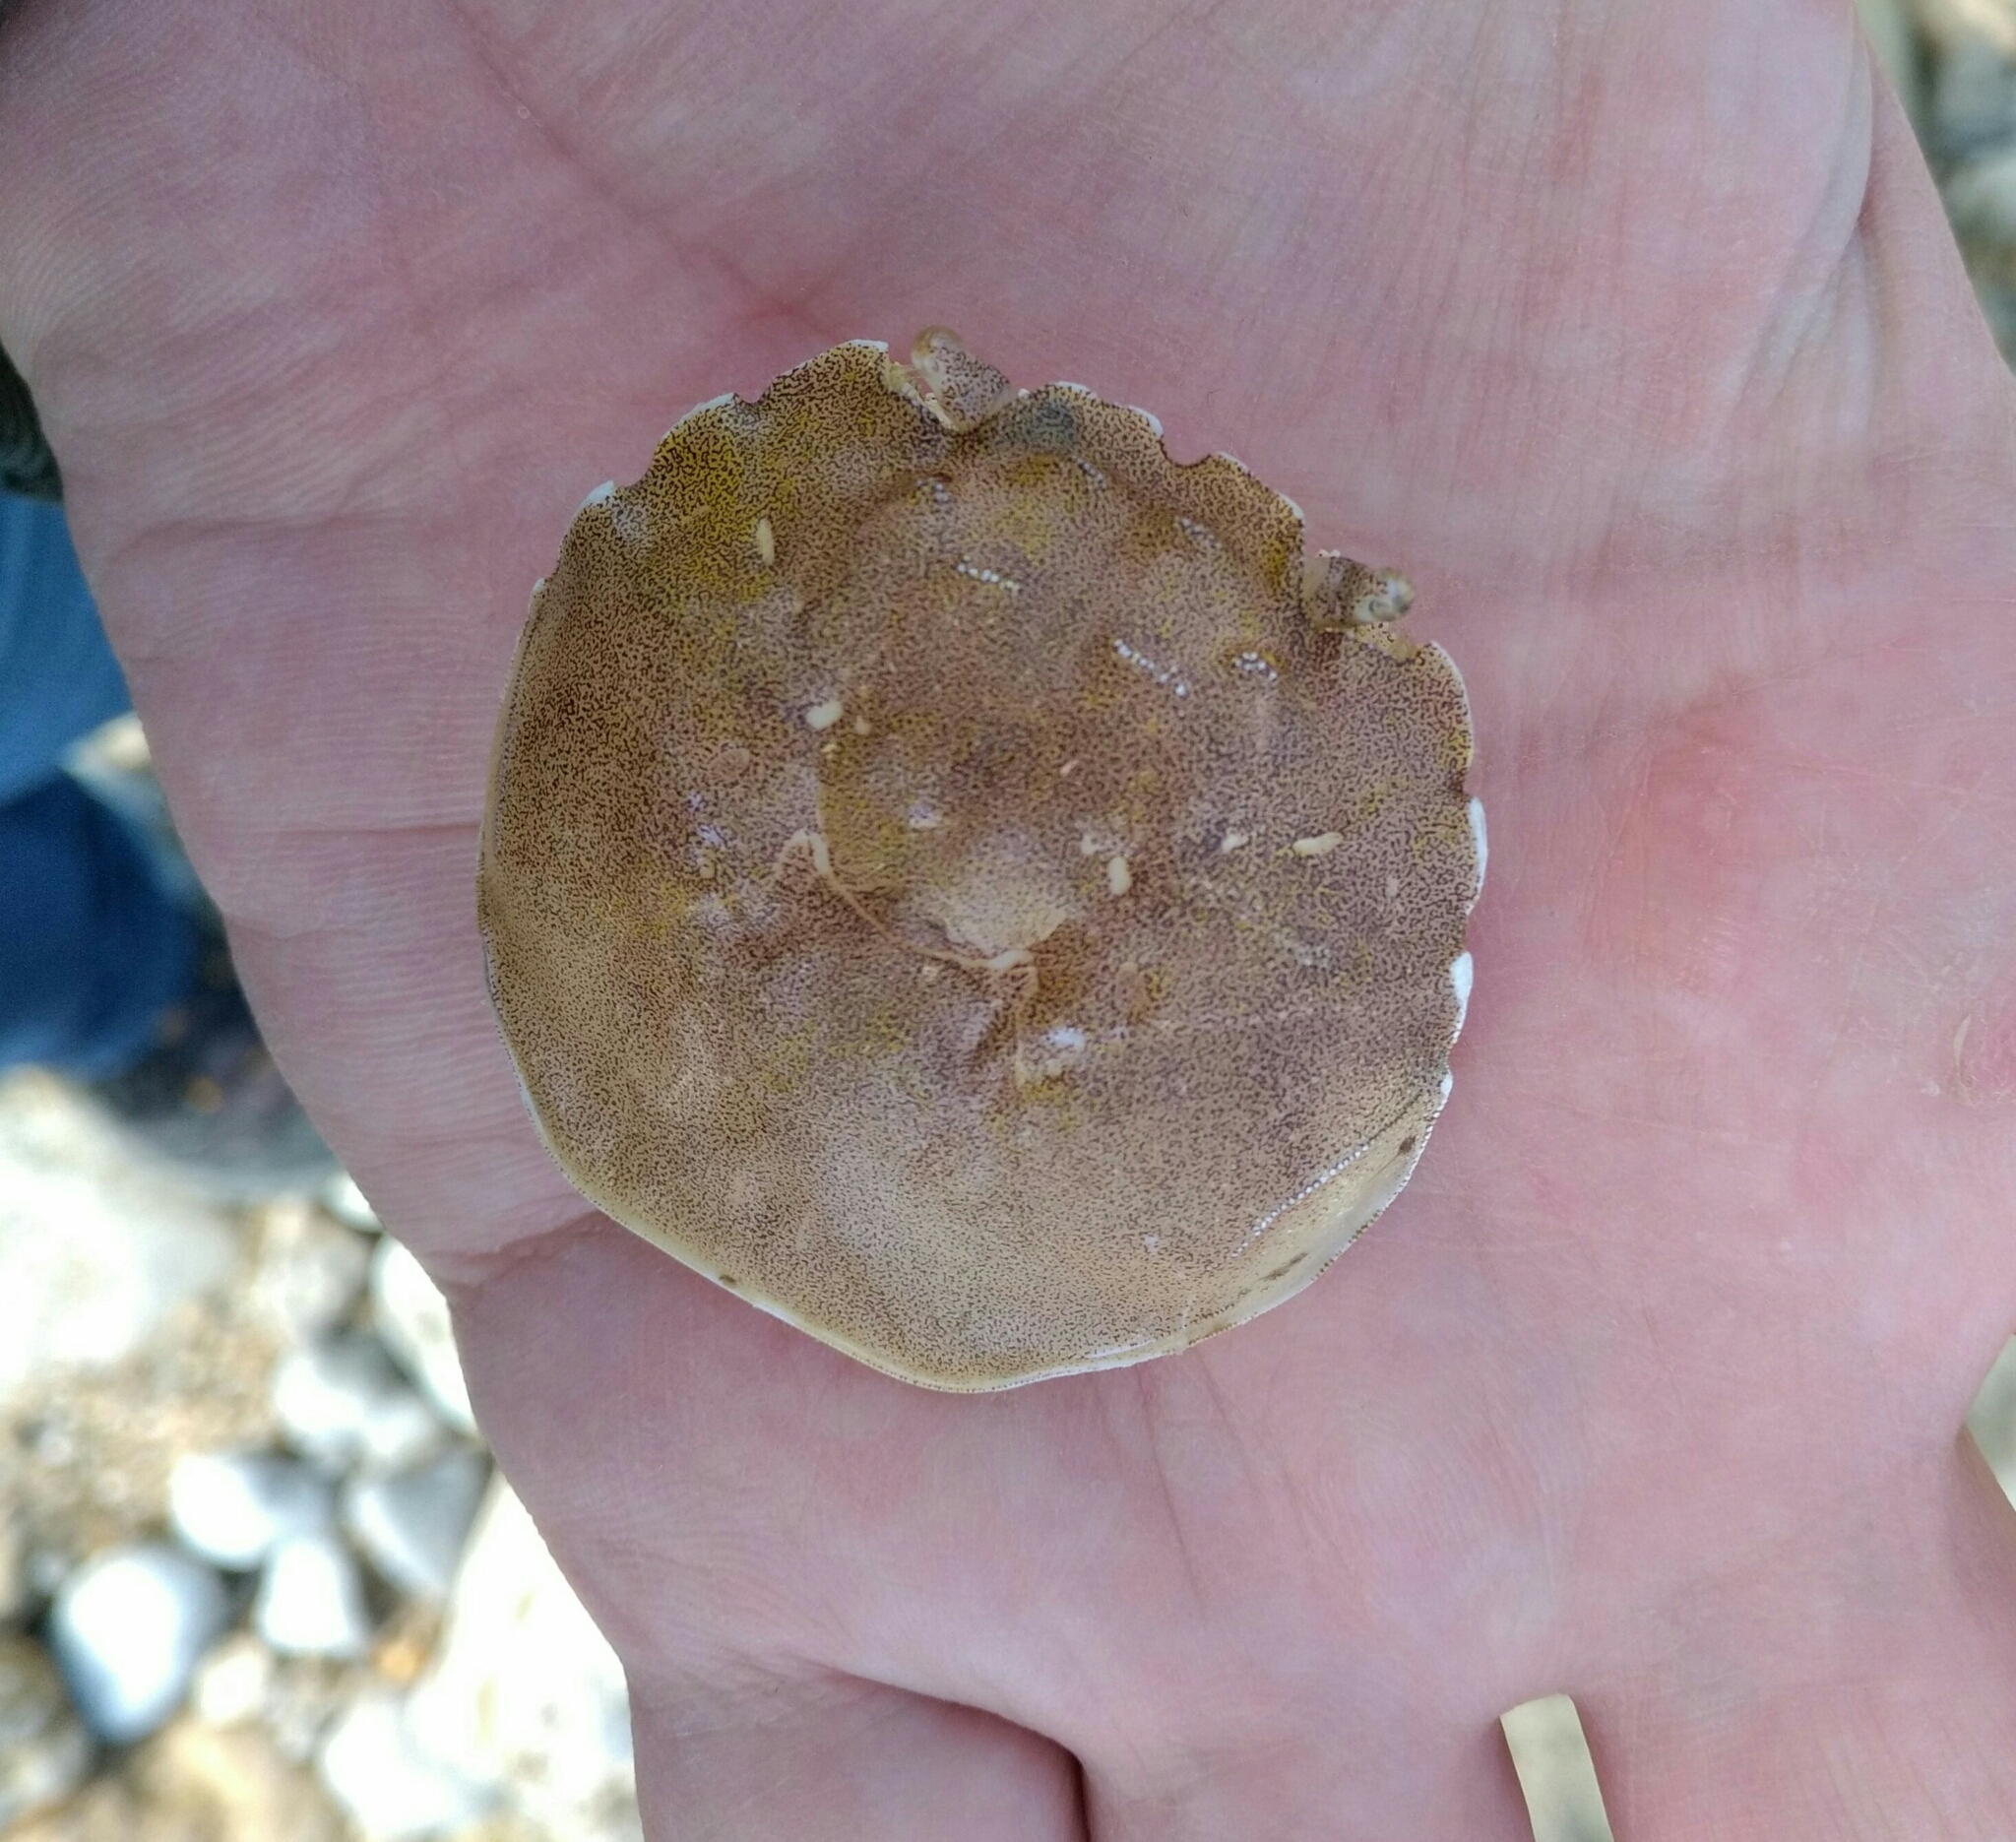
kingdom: Animalia
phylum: Arthropoda
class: Malacostraca
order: Decapoda
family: Varunidae
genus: Eriocheir
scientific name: Eriocheir sinensis
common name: Chinese mitten crab
